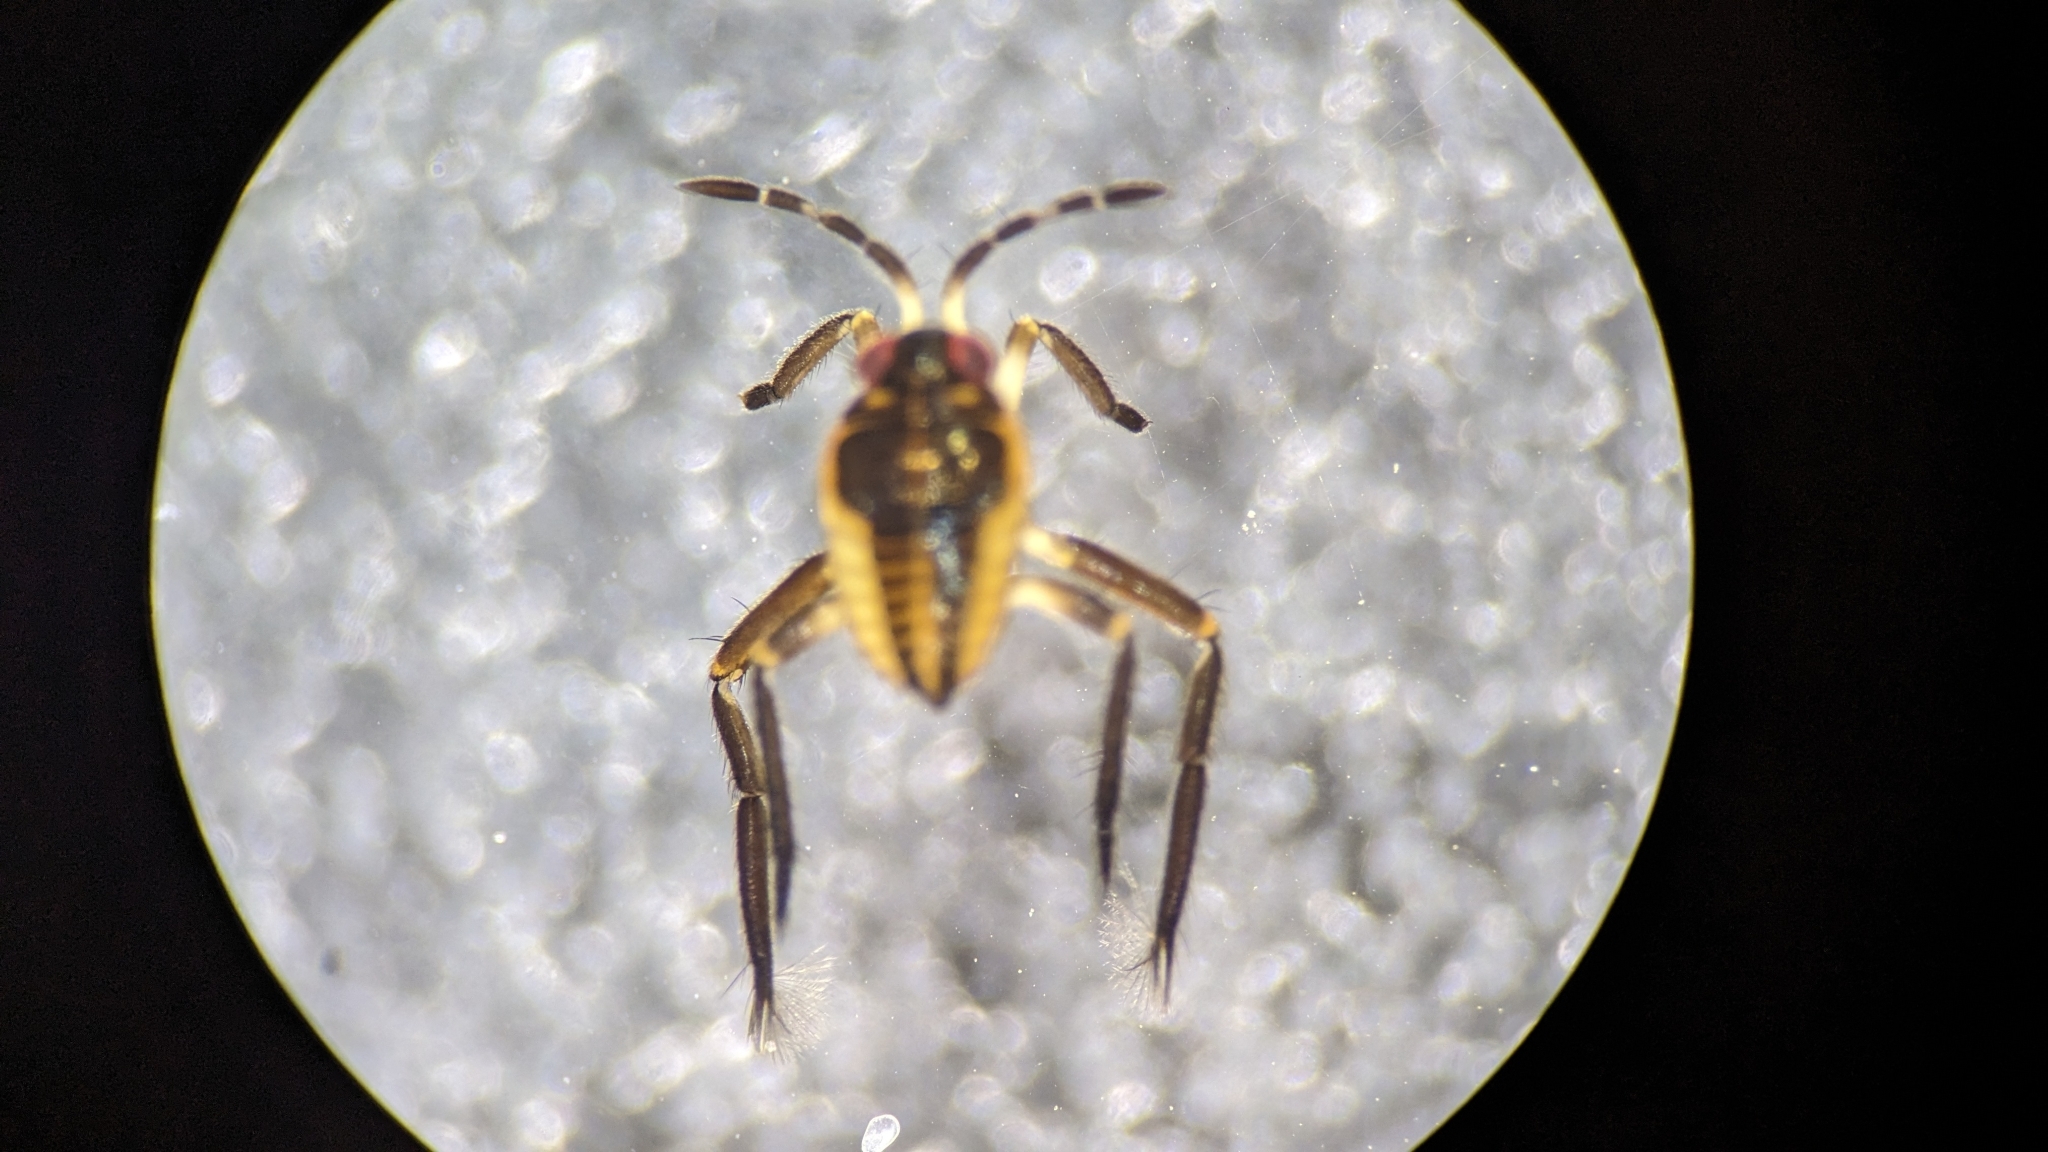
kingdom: Animalia
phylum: Arthropoda
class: Insecta
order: Hemiptera
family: Veliidae
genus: Rhagovelia
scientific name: Rhagovelia
